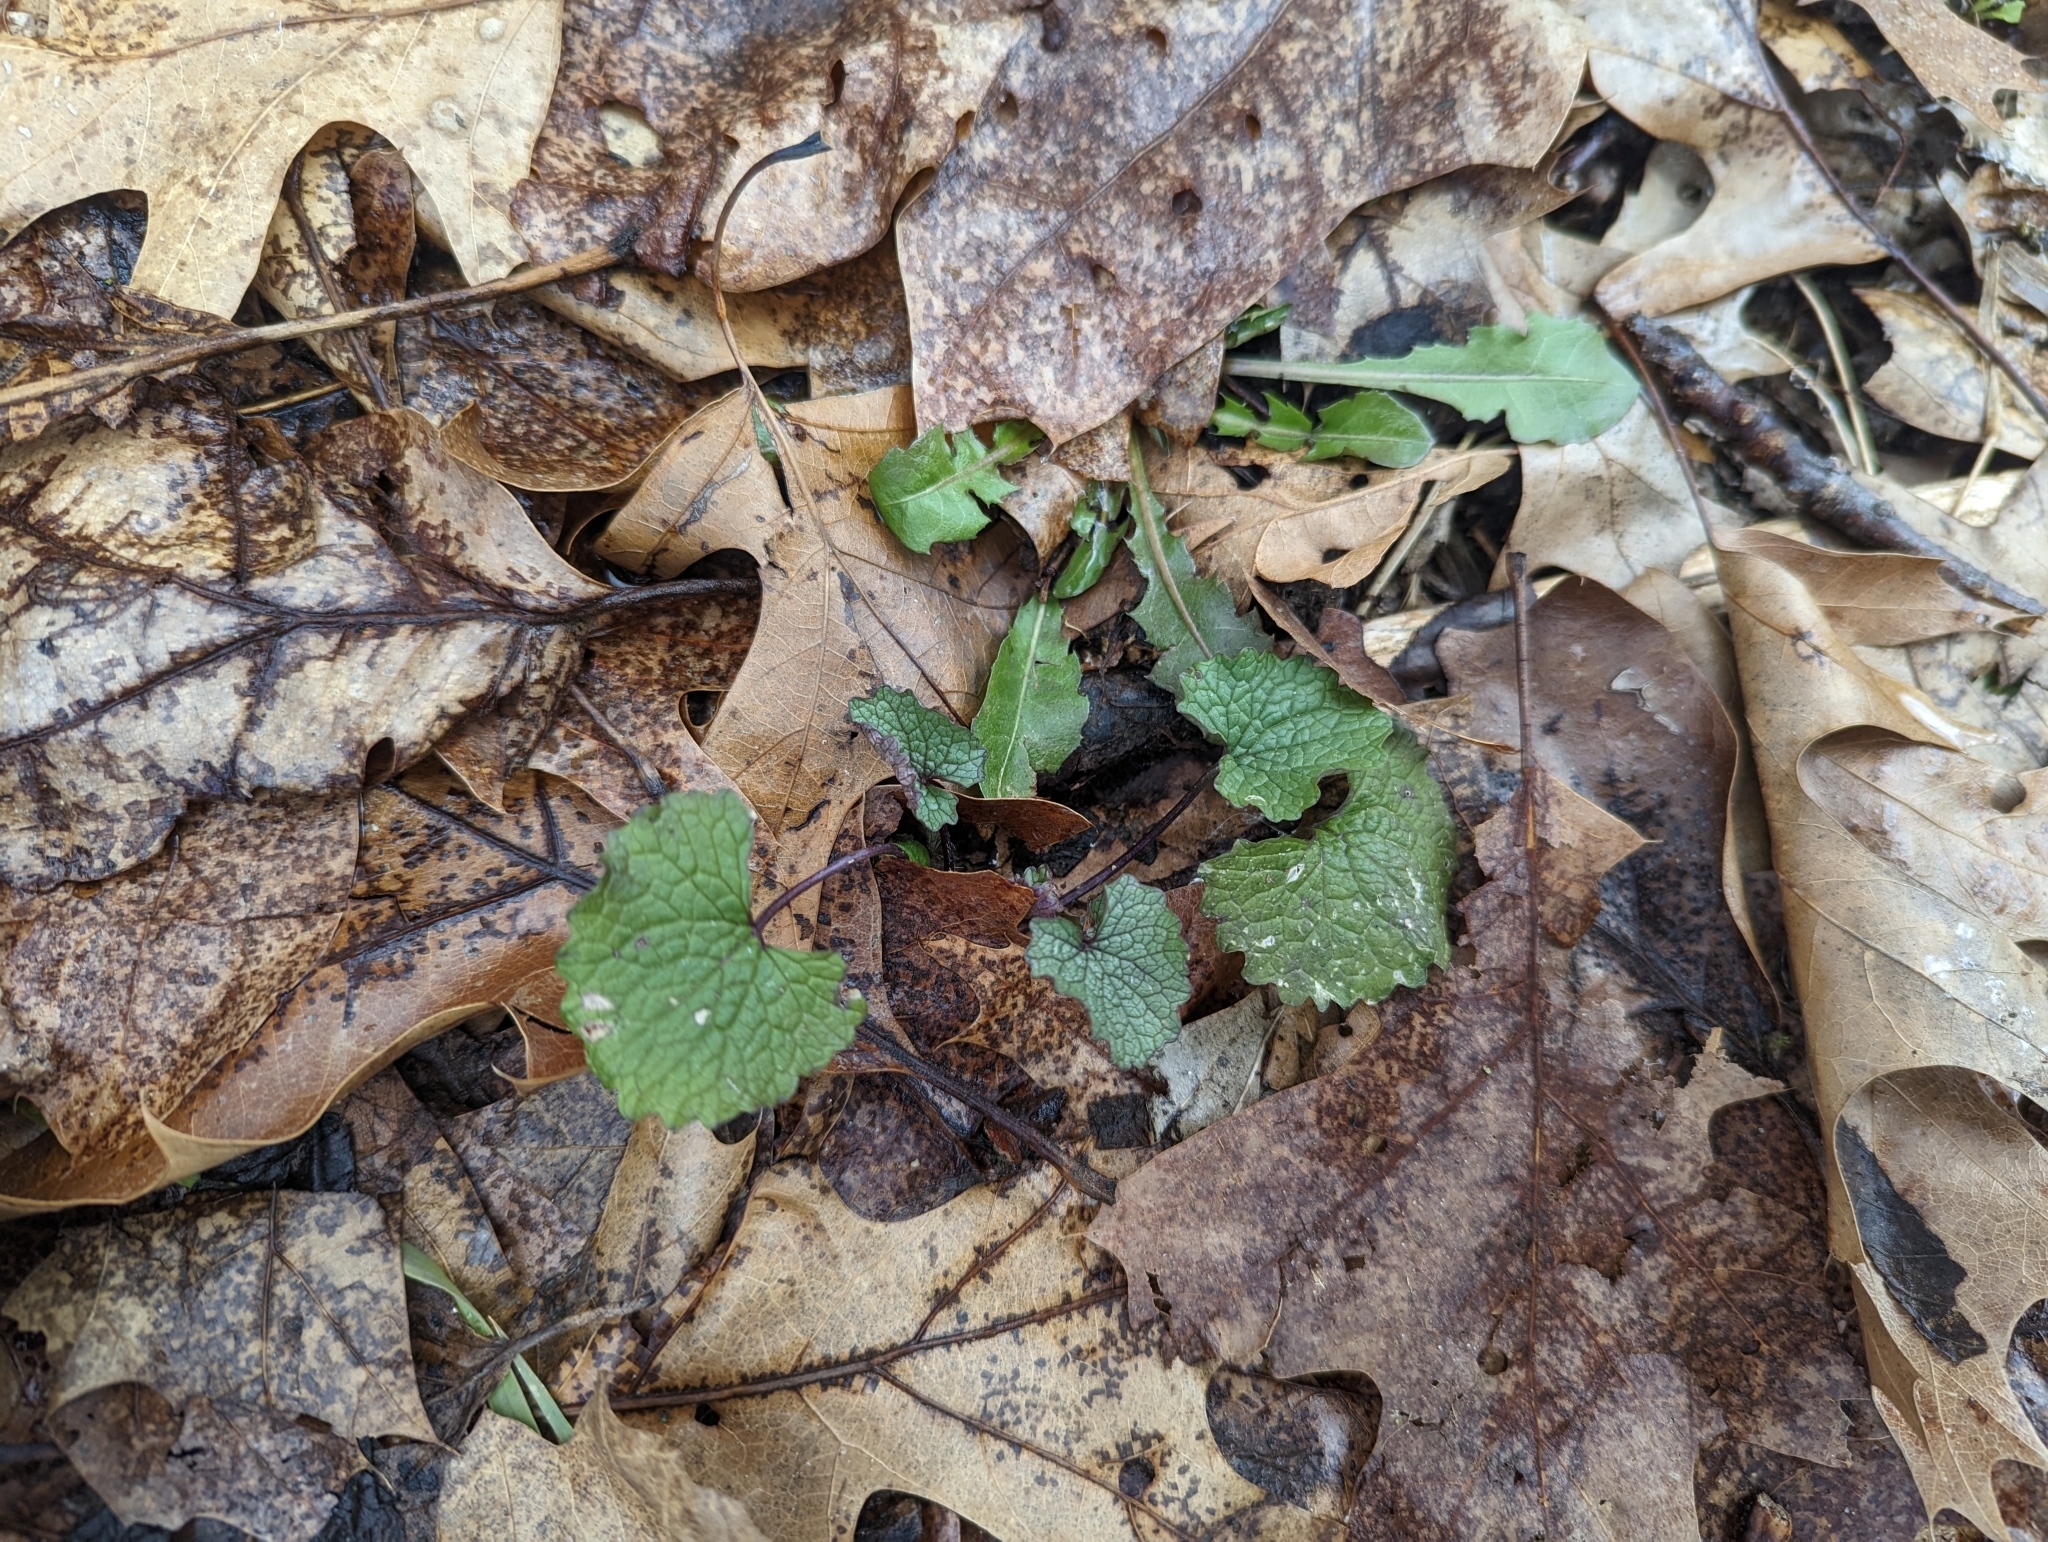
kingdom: Plantae
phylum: Tracheophyta
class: Magnoliopsida
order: Brassicales
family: Brassicaceae
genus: Alliaria
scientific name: Alliaria petiolata
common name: Garlic mustard
